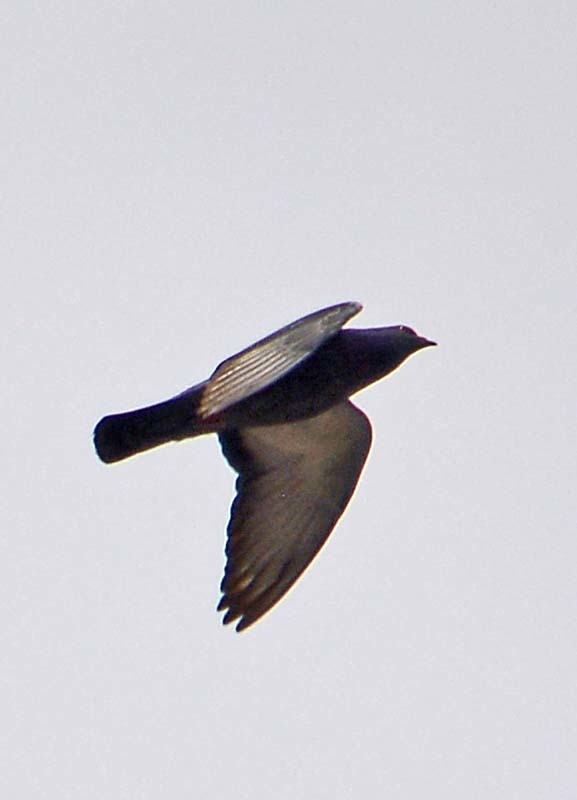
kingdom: Animalia
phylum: Chordata
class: Aves
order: Columbiformes
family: Columbidae
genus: Columba
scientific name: Columba livia
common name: Rock pigeon
